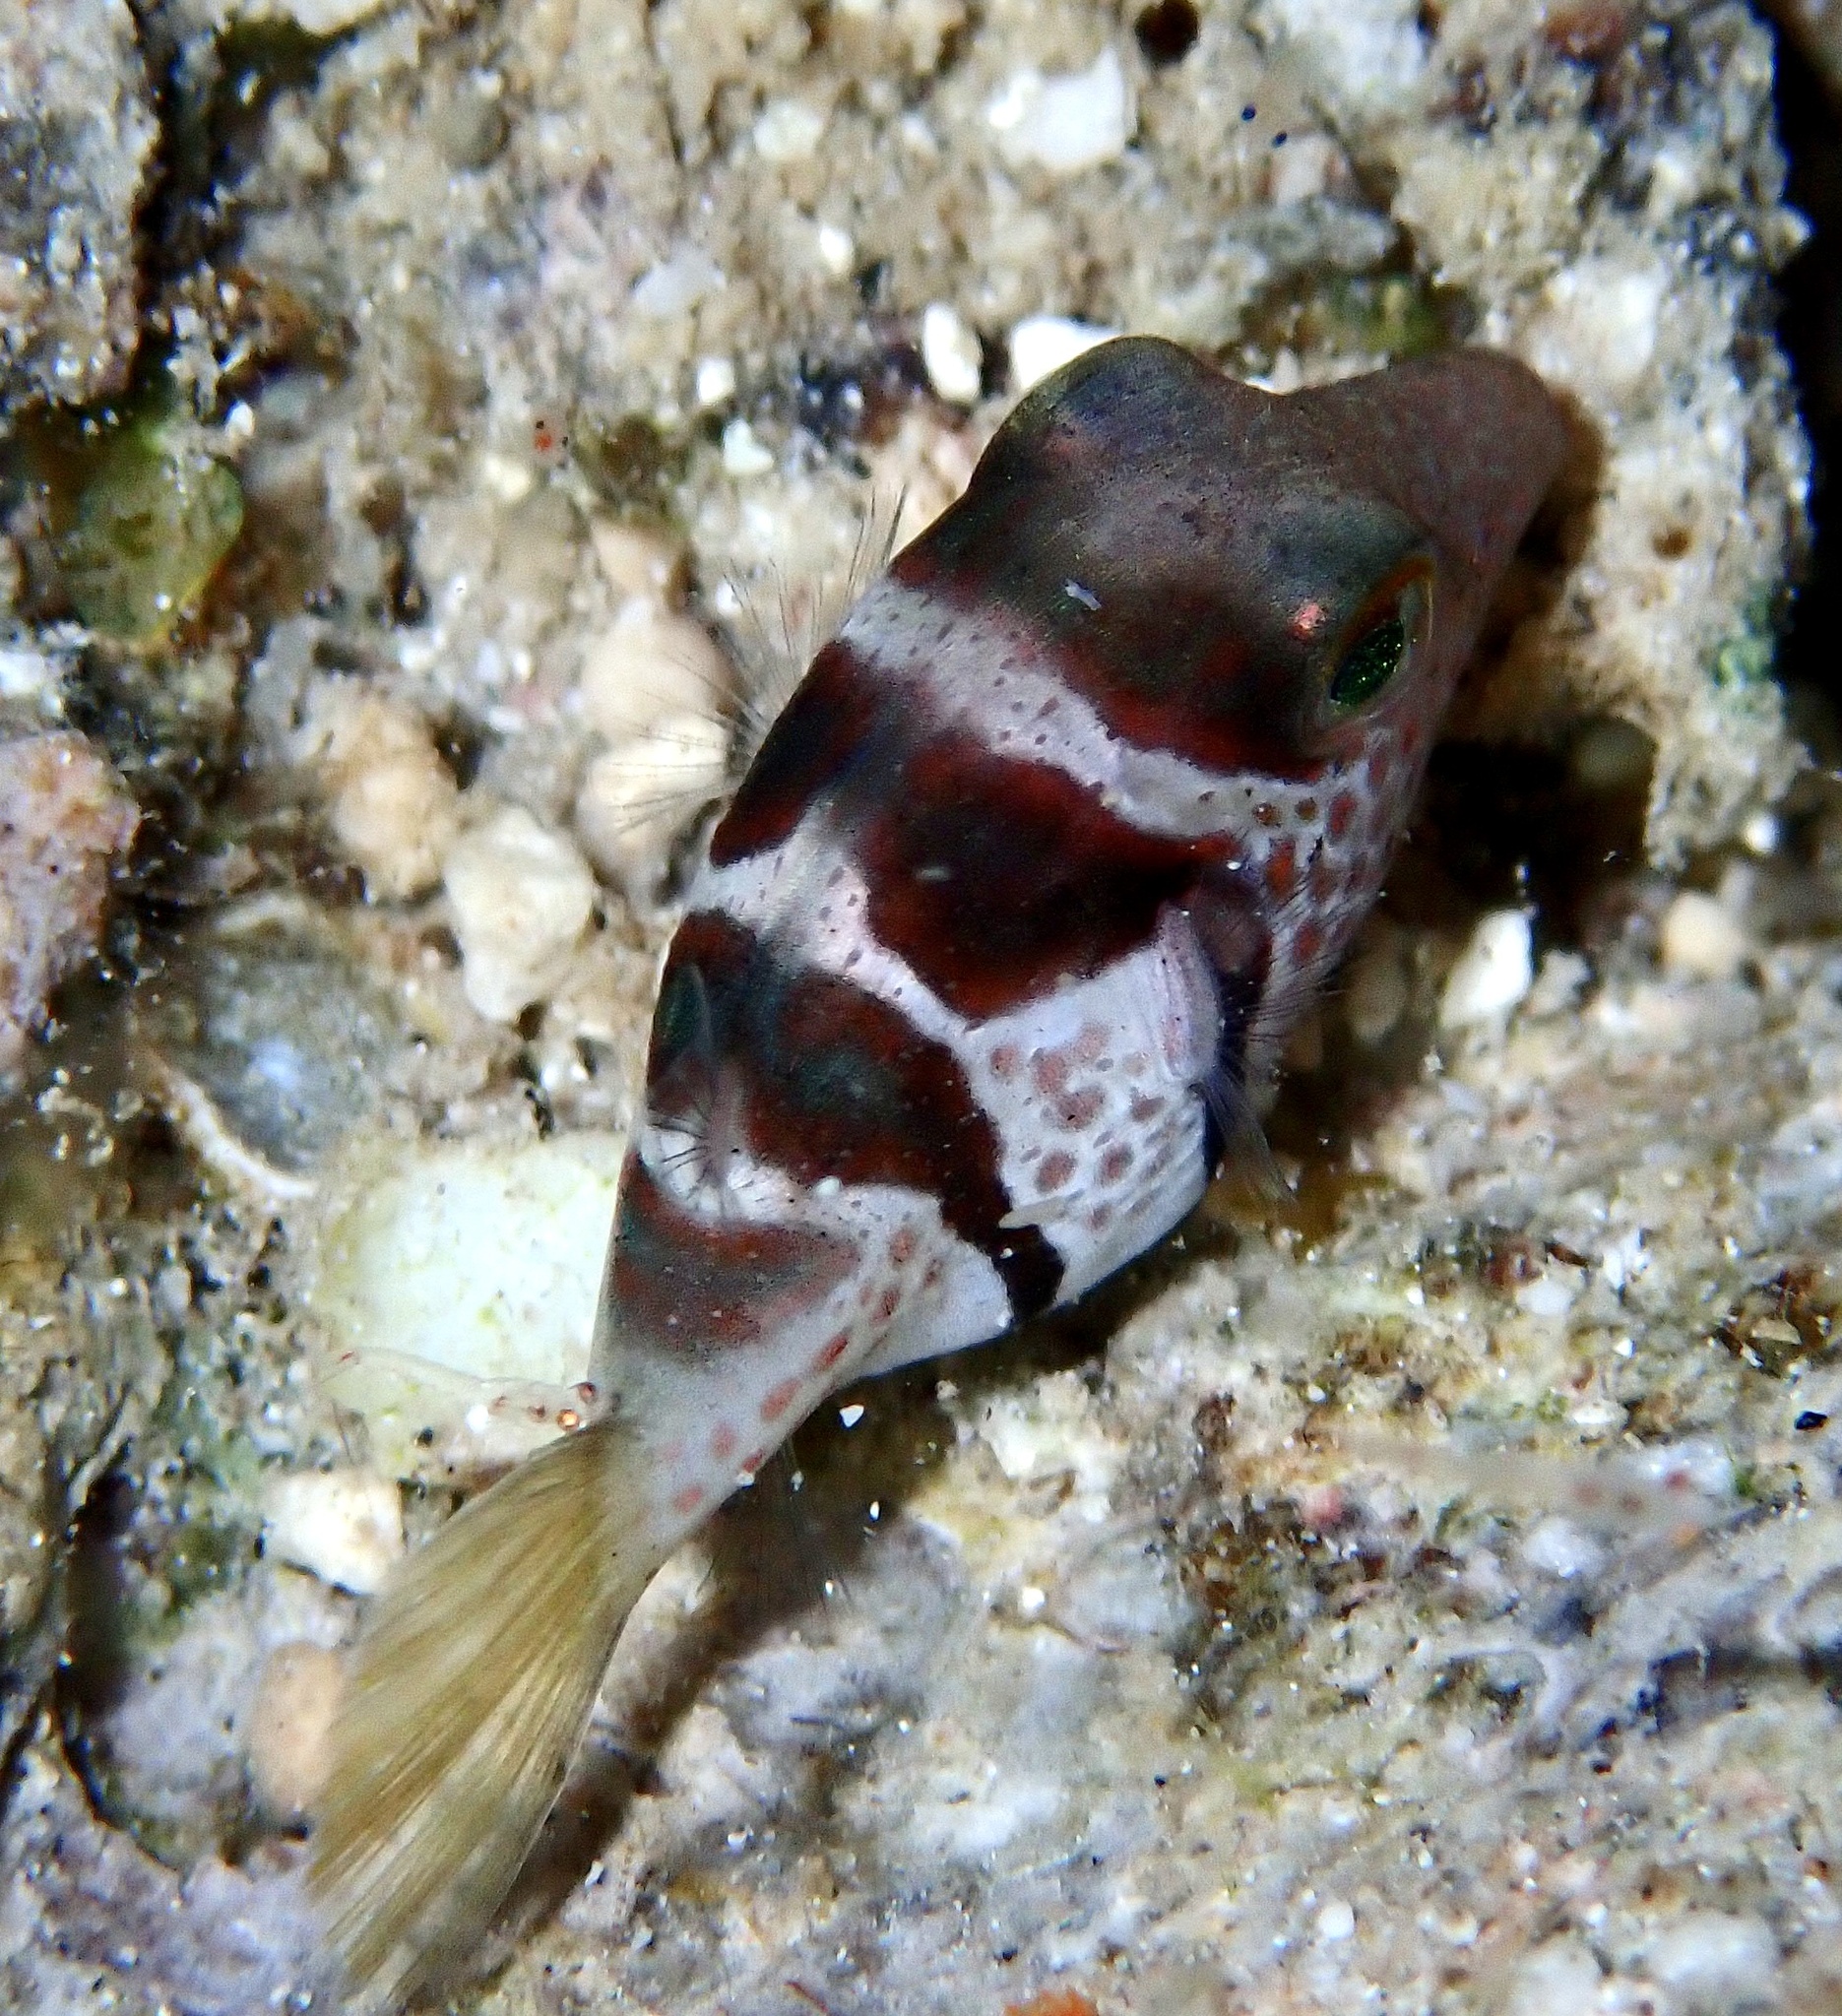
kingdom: Animalia
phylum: Chordata
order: Tetraodontiformes
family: Tetraodontidae
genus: Canthigaster
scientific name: Canthigaster valentini
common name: Banded toby
